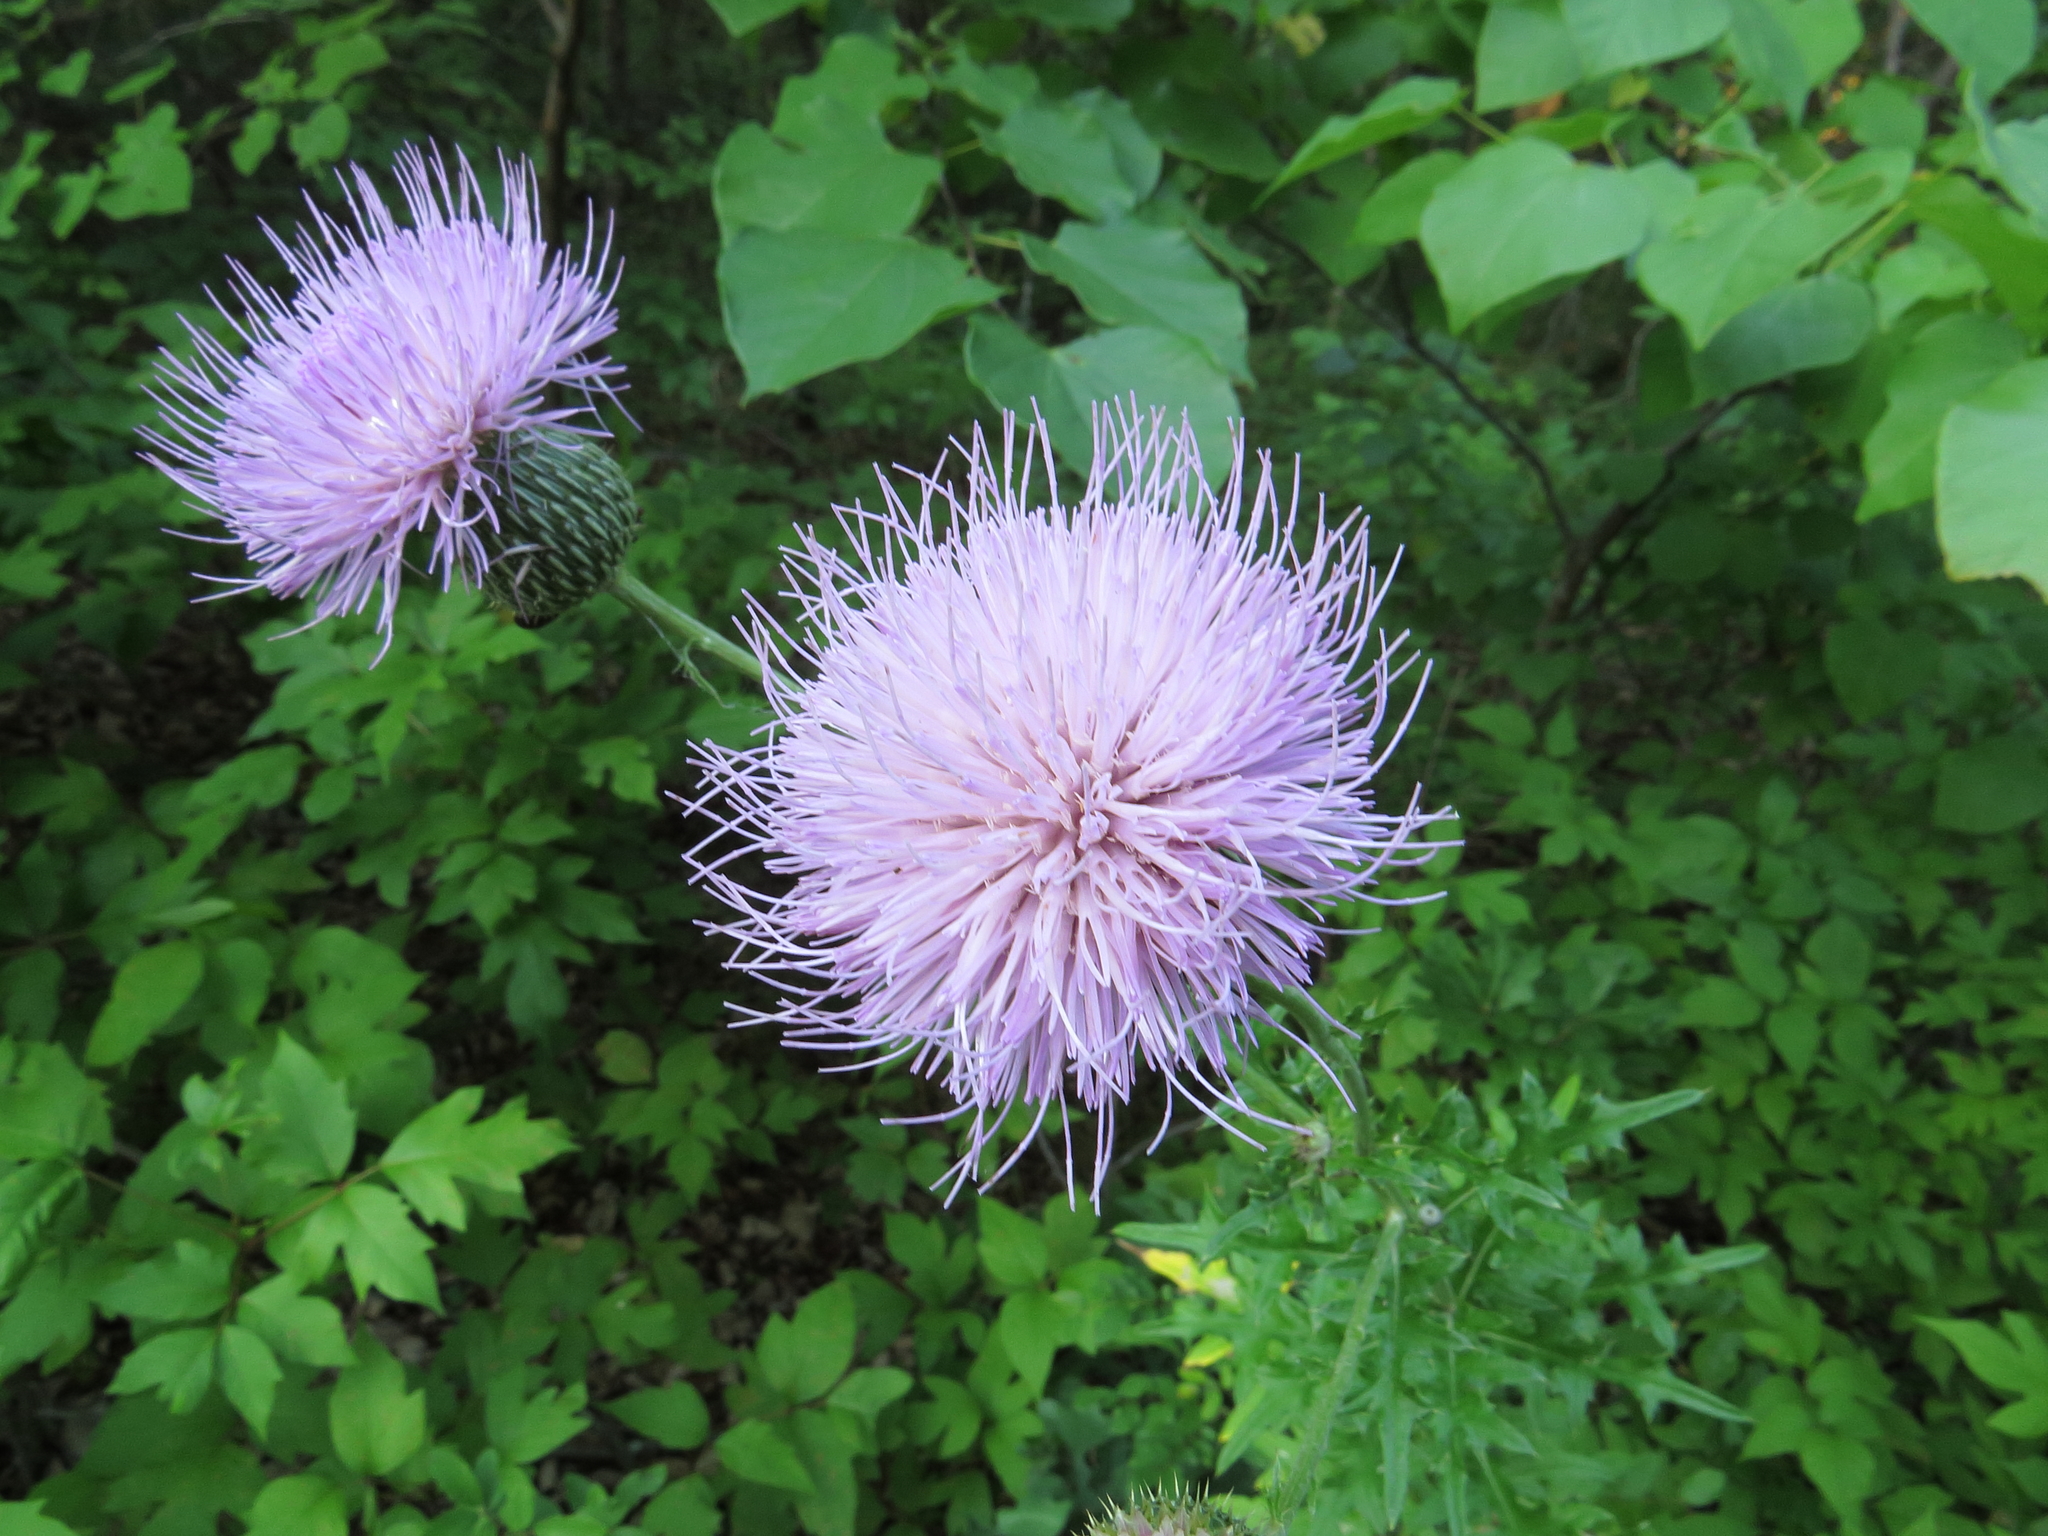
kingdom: Plantae
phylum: Tracheophyta
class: Magnoliopsida
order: Asterales
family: Asteraceae
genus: Cirsium
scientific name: Cirsium texanum
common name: Texas purple thistle
